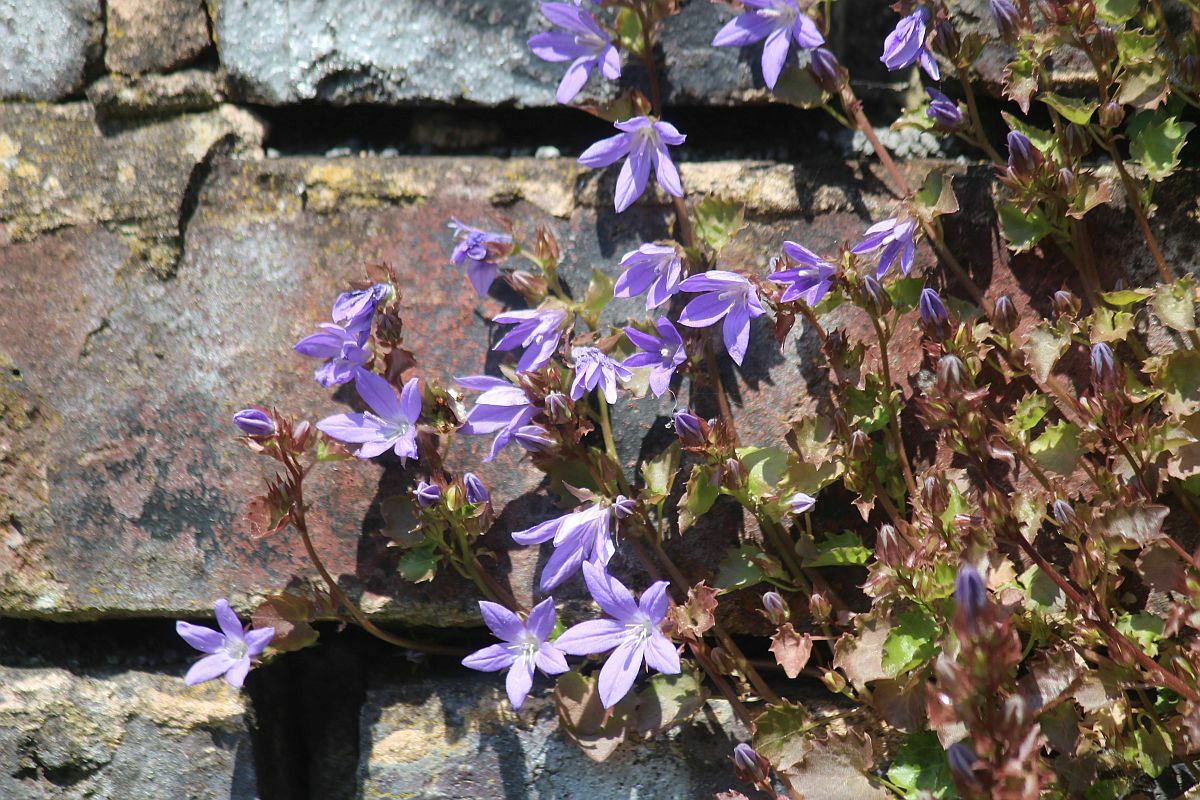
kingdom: Plantae
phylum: Tracheophyta
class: Magnoliopsida
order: Asterales
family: Campanulaceae
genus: Campanula
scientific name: Campanula poscharskyana
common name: Trailing bellflower
